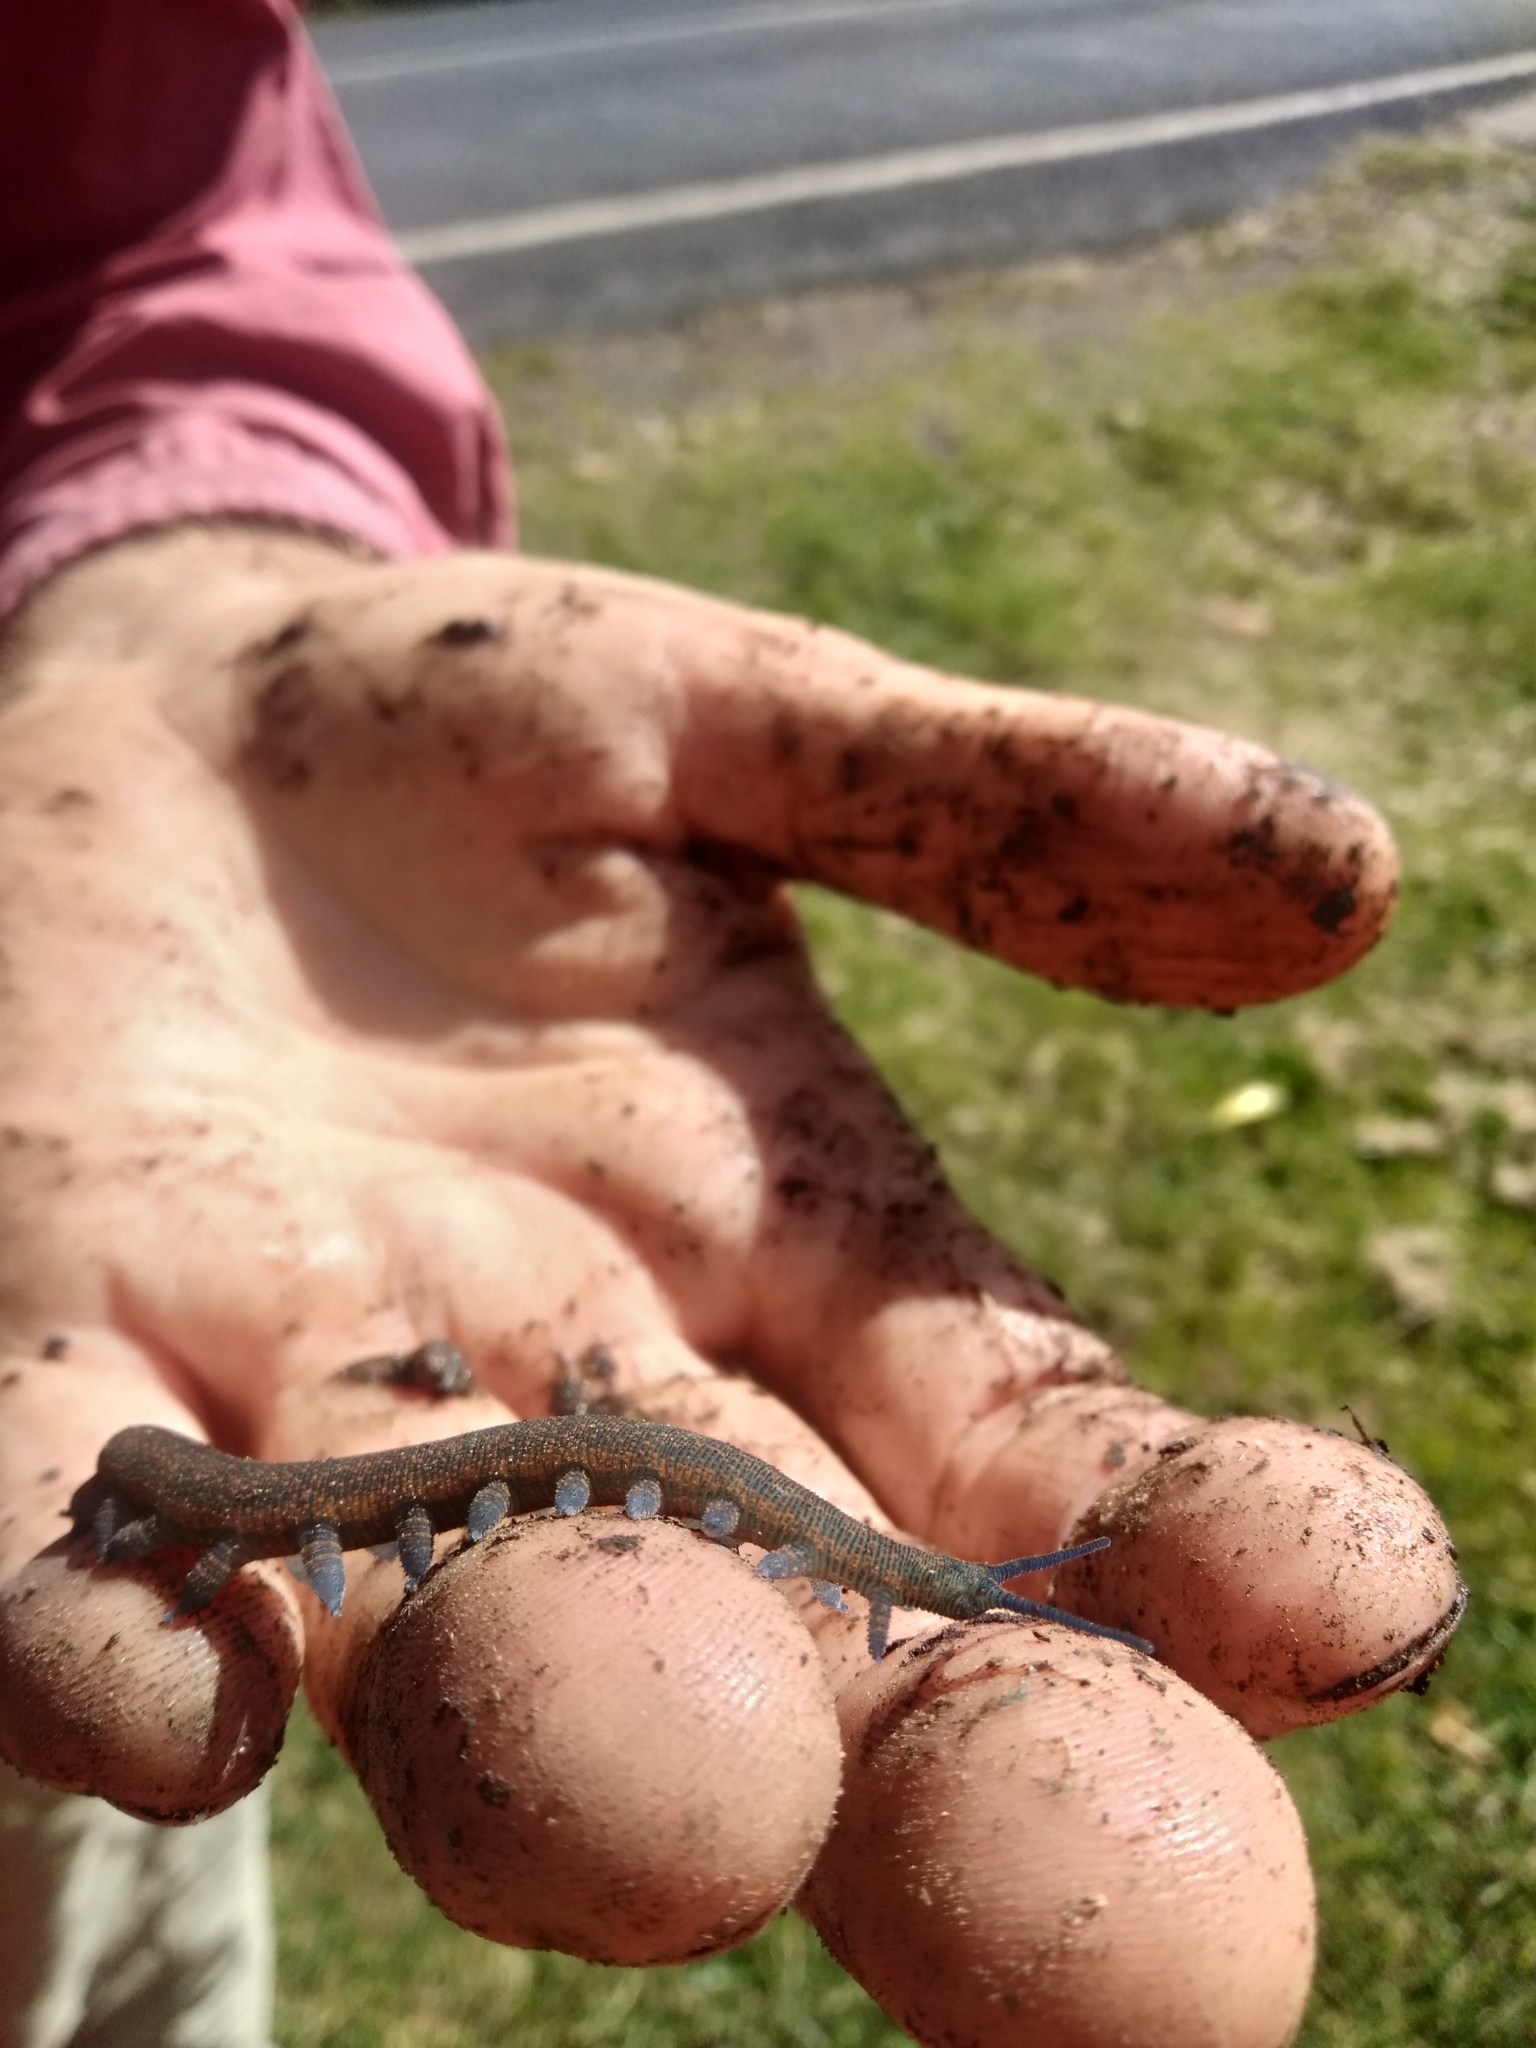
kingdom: Animalia
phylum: Onychophora
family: Peripatopsidae
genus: Peripatoides
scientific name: Peripatoides sympatrica
